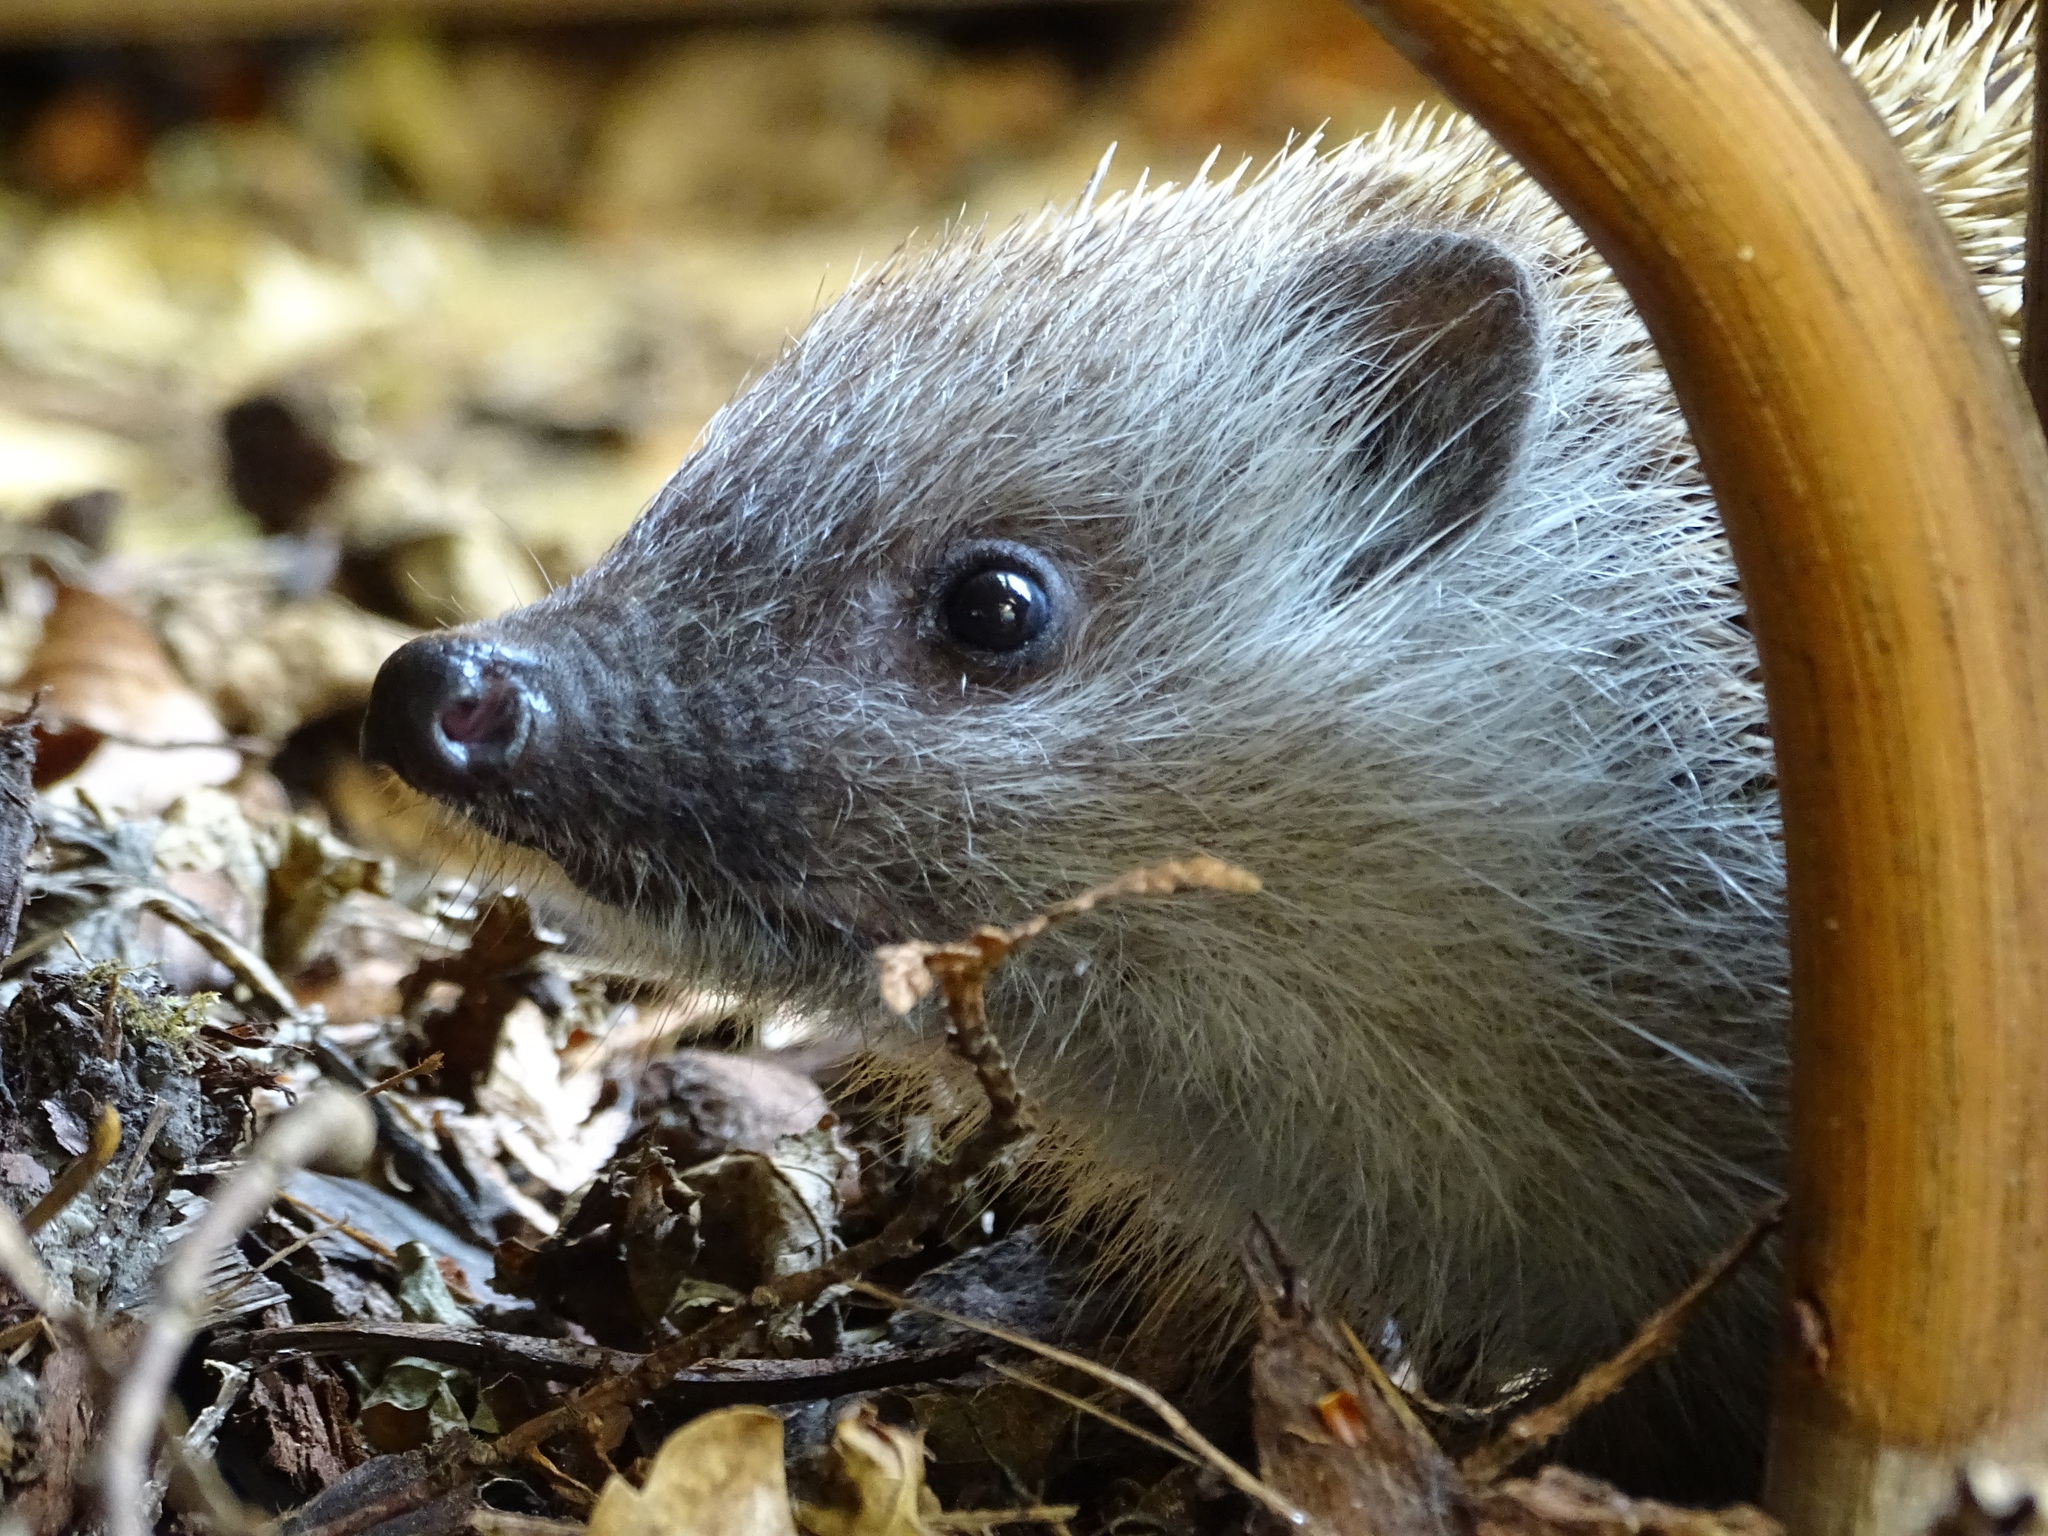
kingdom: Animalia
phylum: Chordata
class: Mammalia
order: Erinaceomorpha
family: Erinaceidae
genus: Erinaceus
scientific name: Erinaceus
